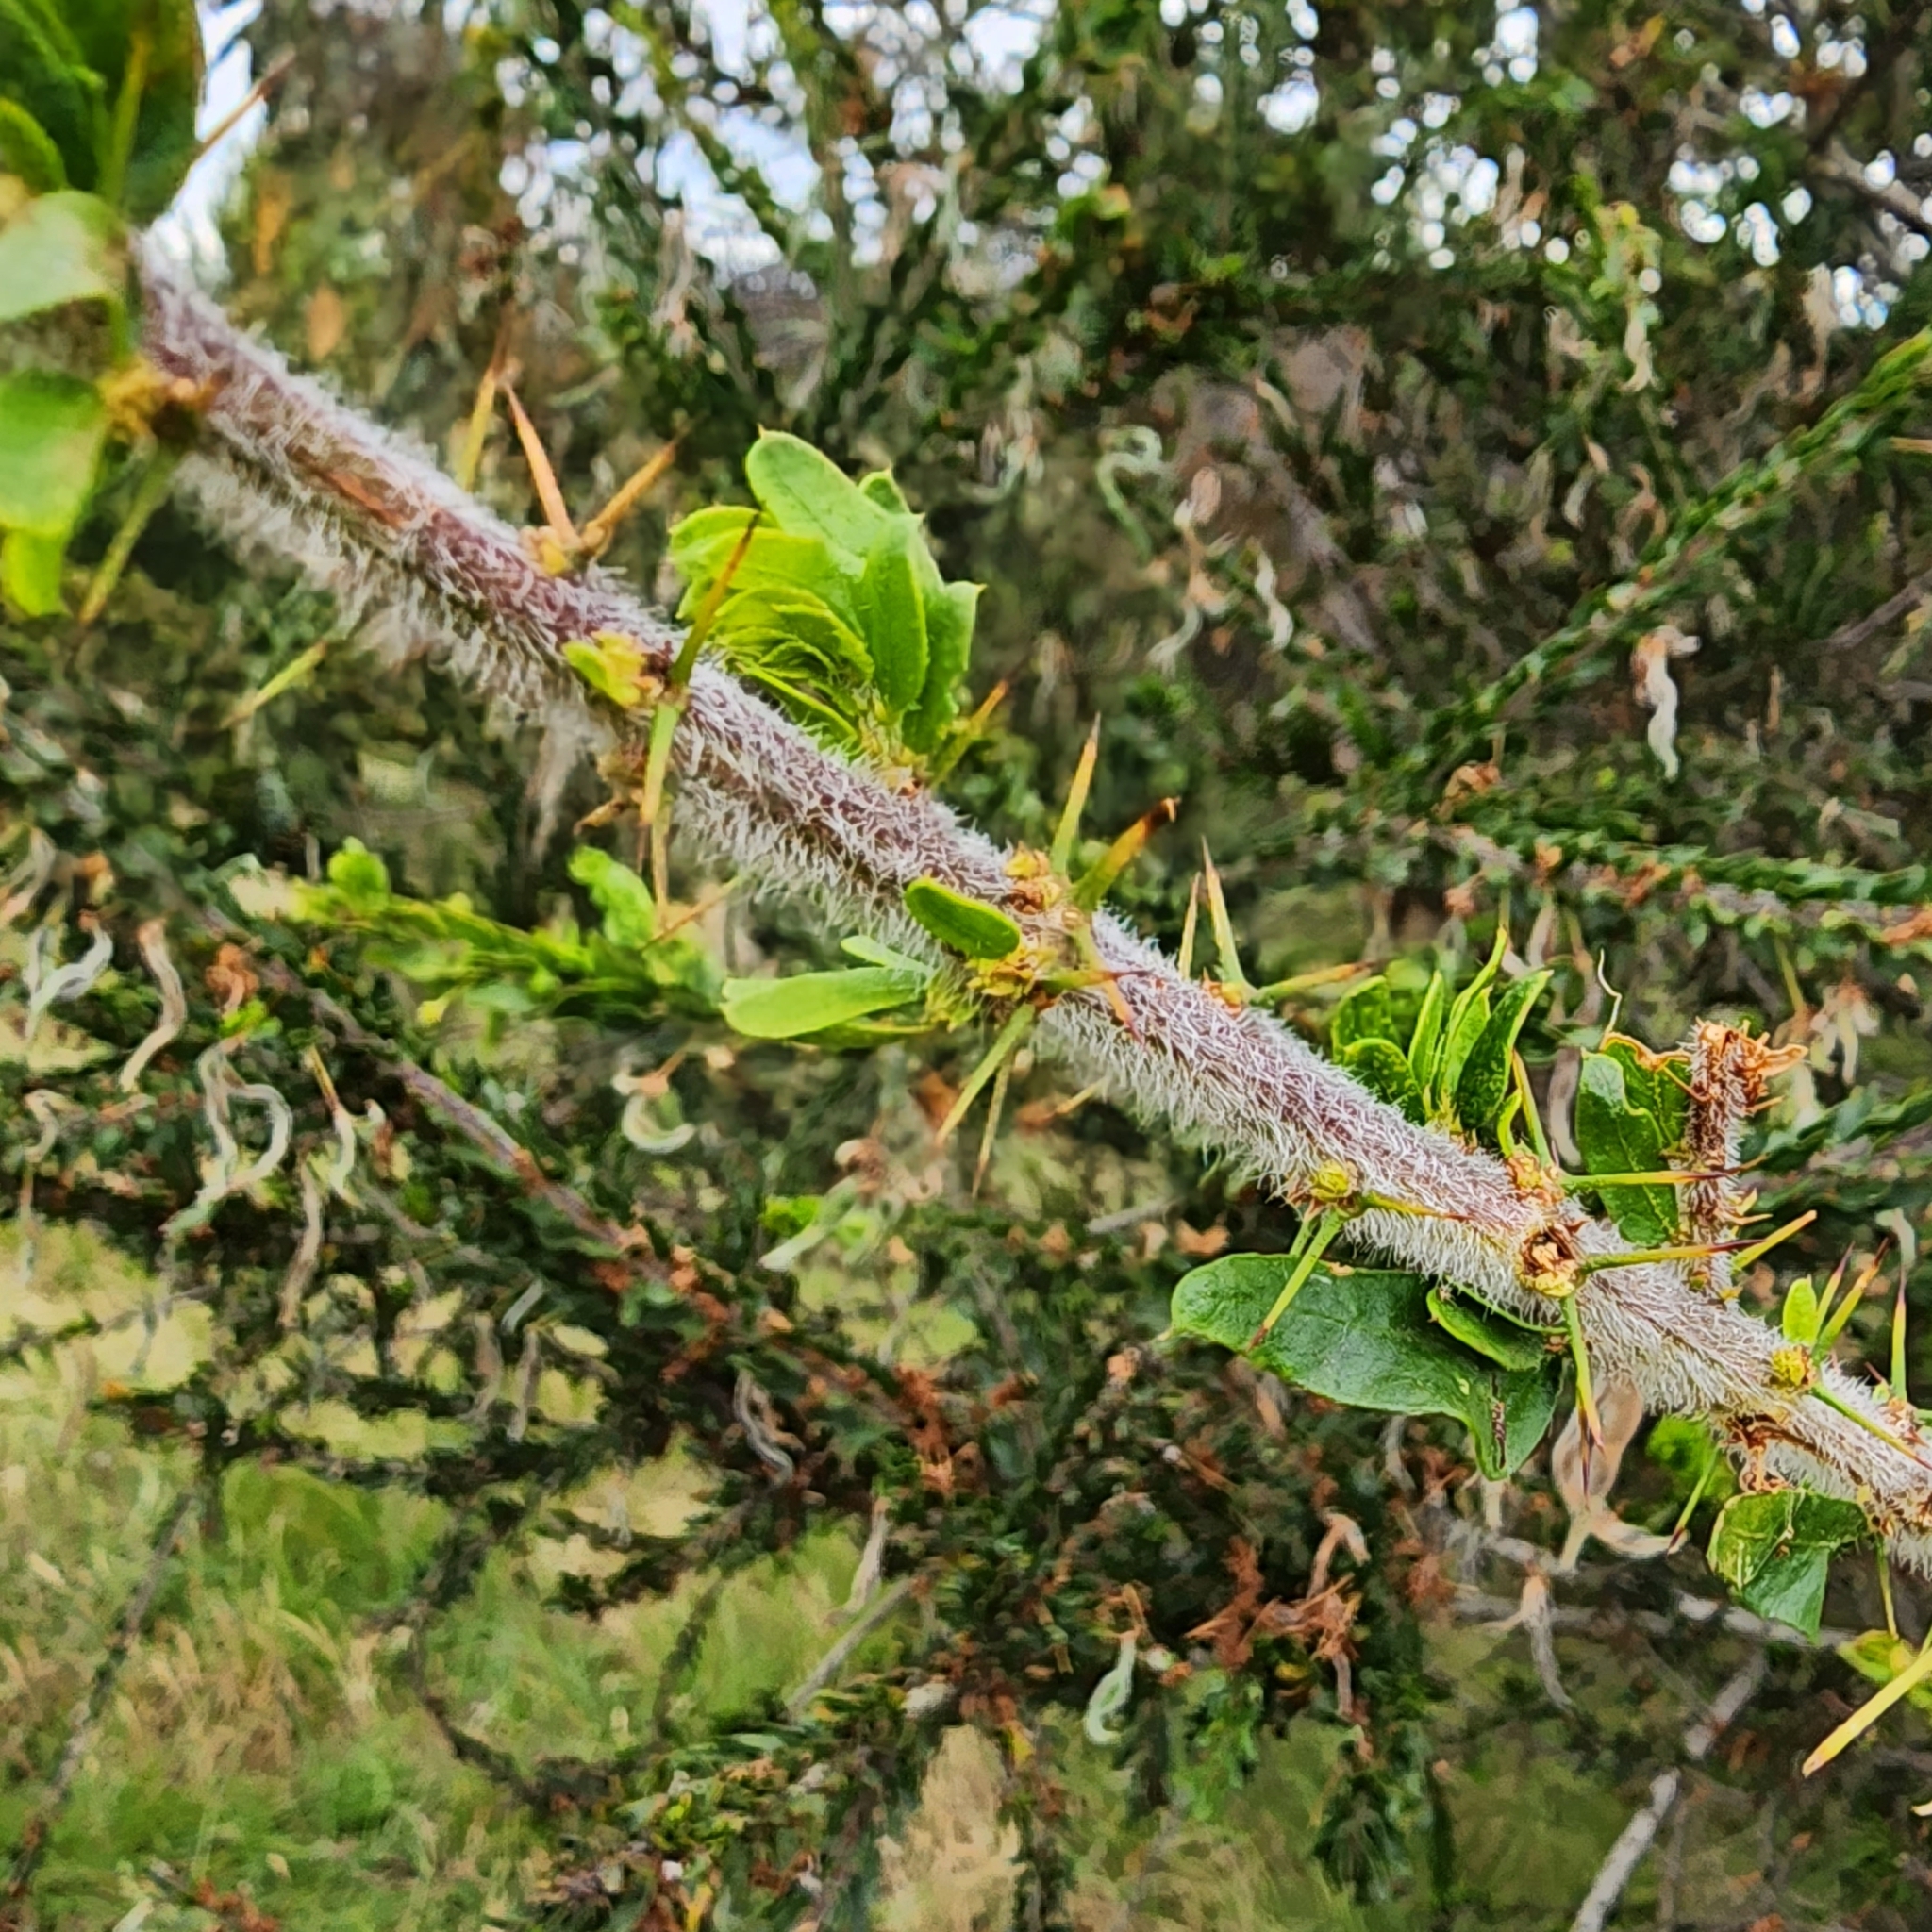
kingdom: Plantae
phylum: Tracheophyta
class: Magnoliopsida
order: Fabales
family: Fabaceae
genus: Acacia
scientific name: Acacia paradoxa
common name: Paradox acacia
